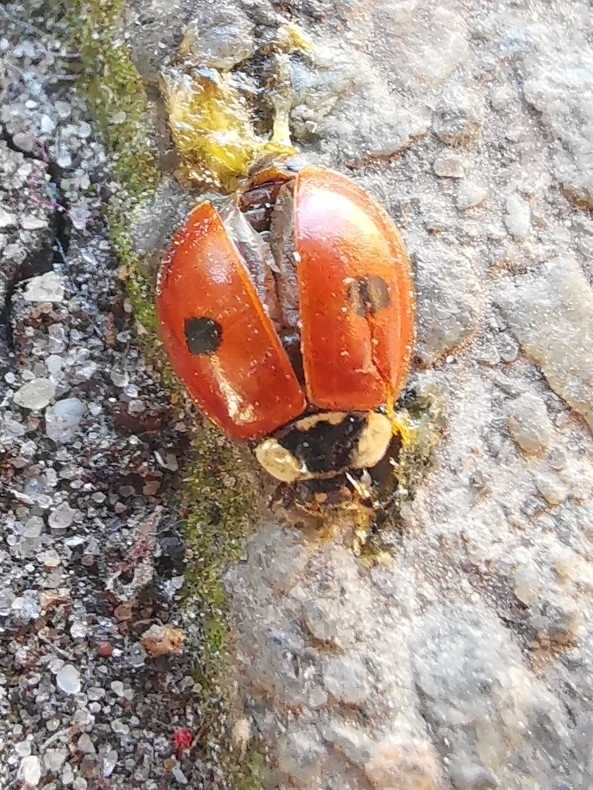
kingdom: Animalia
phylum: Arthropoda
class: Insecta
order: Coleoptera
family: Coccinellidae
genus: Adalia
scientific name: Adalia bipunctata
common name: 2-spot ladybird
